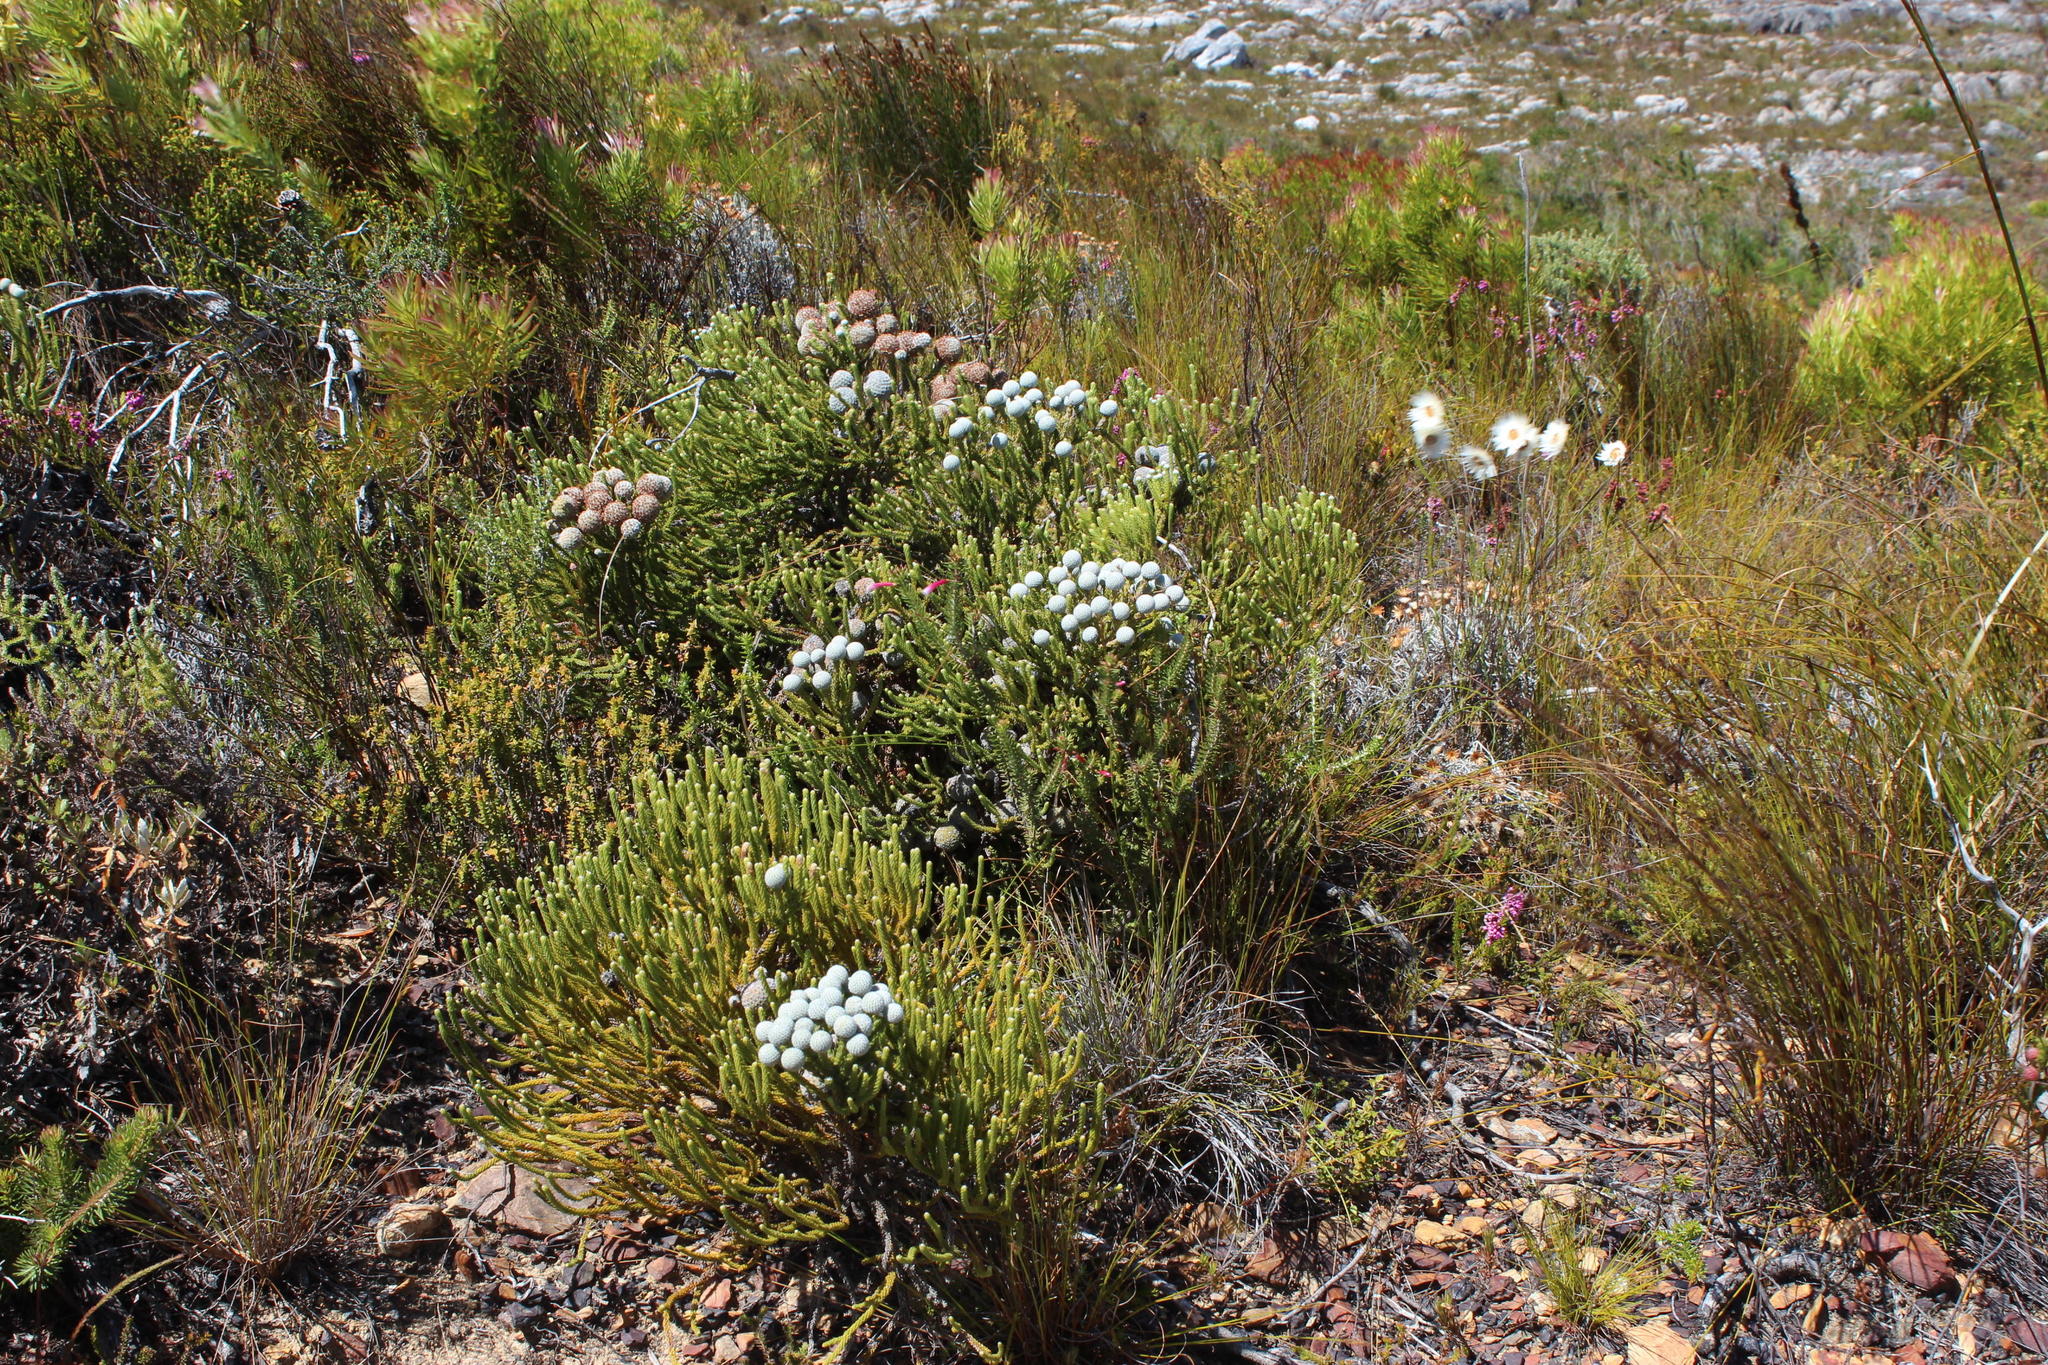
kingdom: Plantae
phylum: Tracheophyta
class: Magnoliopsida
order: Bruniales
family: Bruniaceae
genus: Brunia
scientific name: Brunia noduliflora
